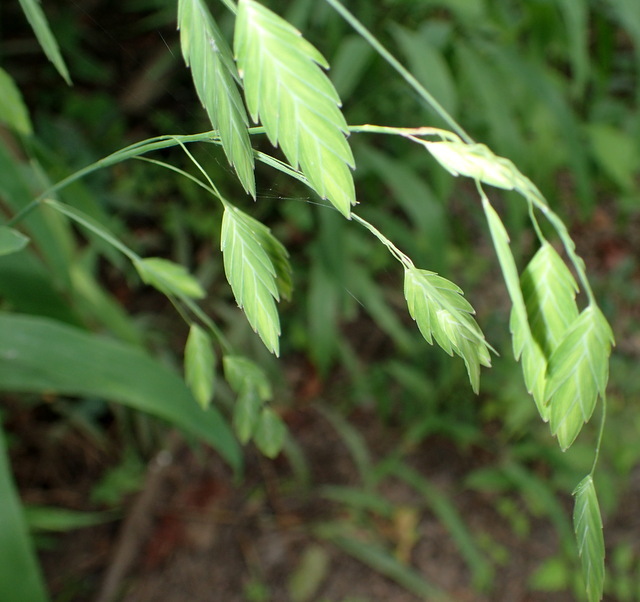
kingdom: Plantae
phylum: Tracheophyta
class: Liliopsida
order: Poales
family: Poaceae
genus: Chasmanthium
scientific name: Chasmanthium latifolium
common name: Broad-leaved chasmanthium
